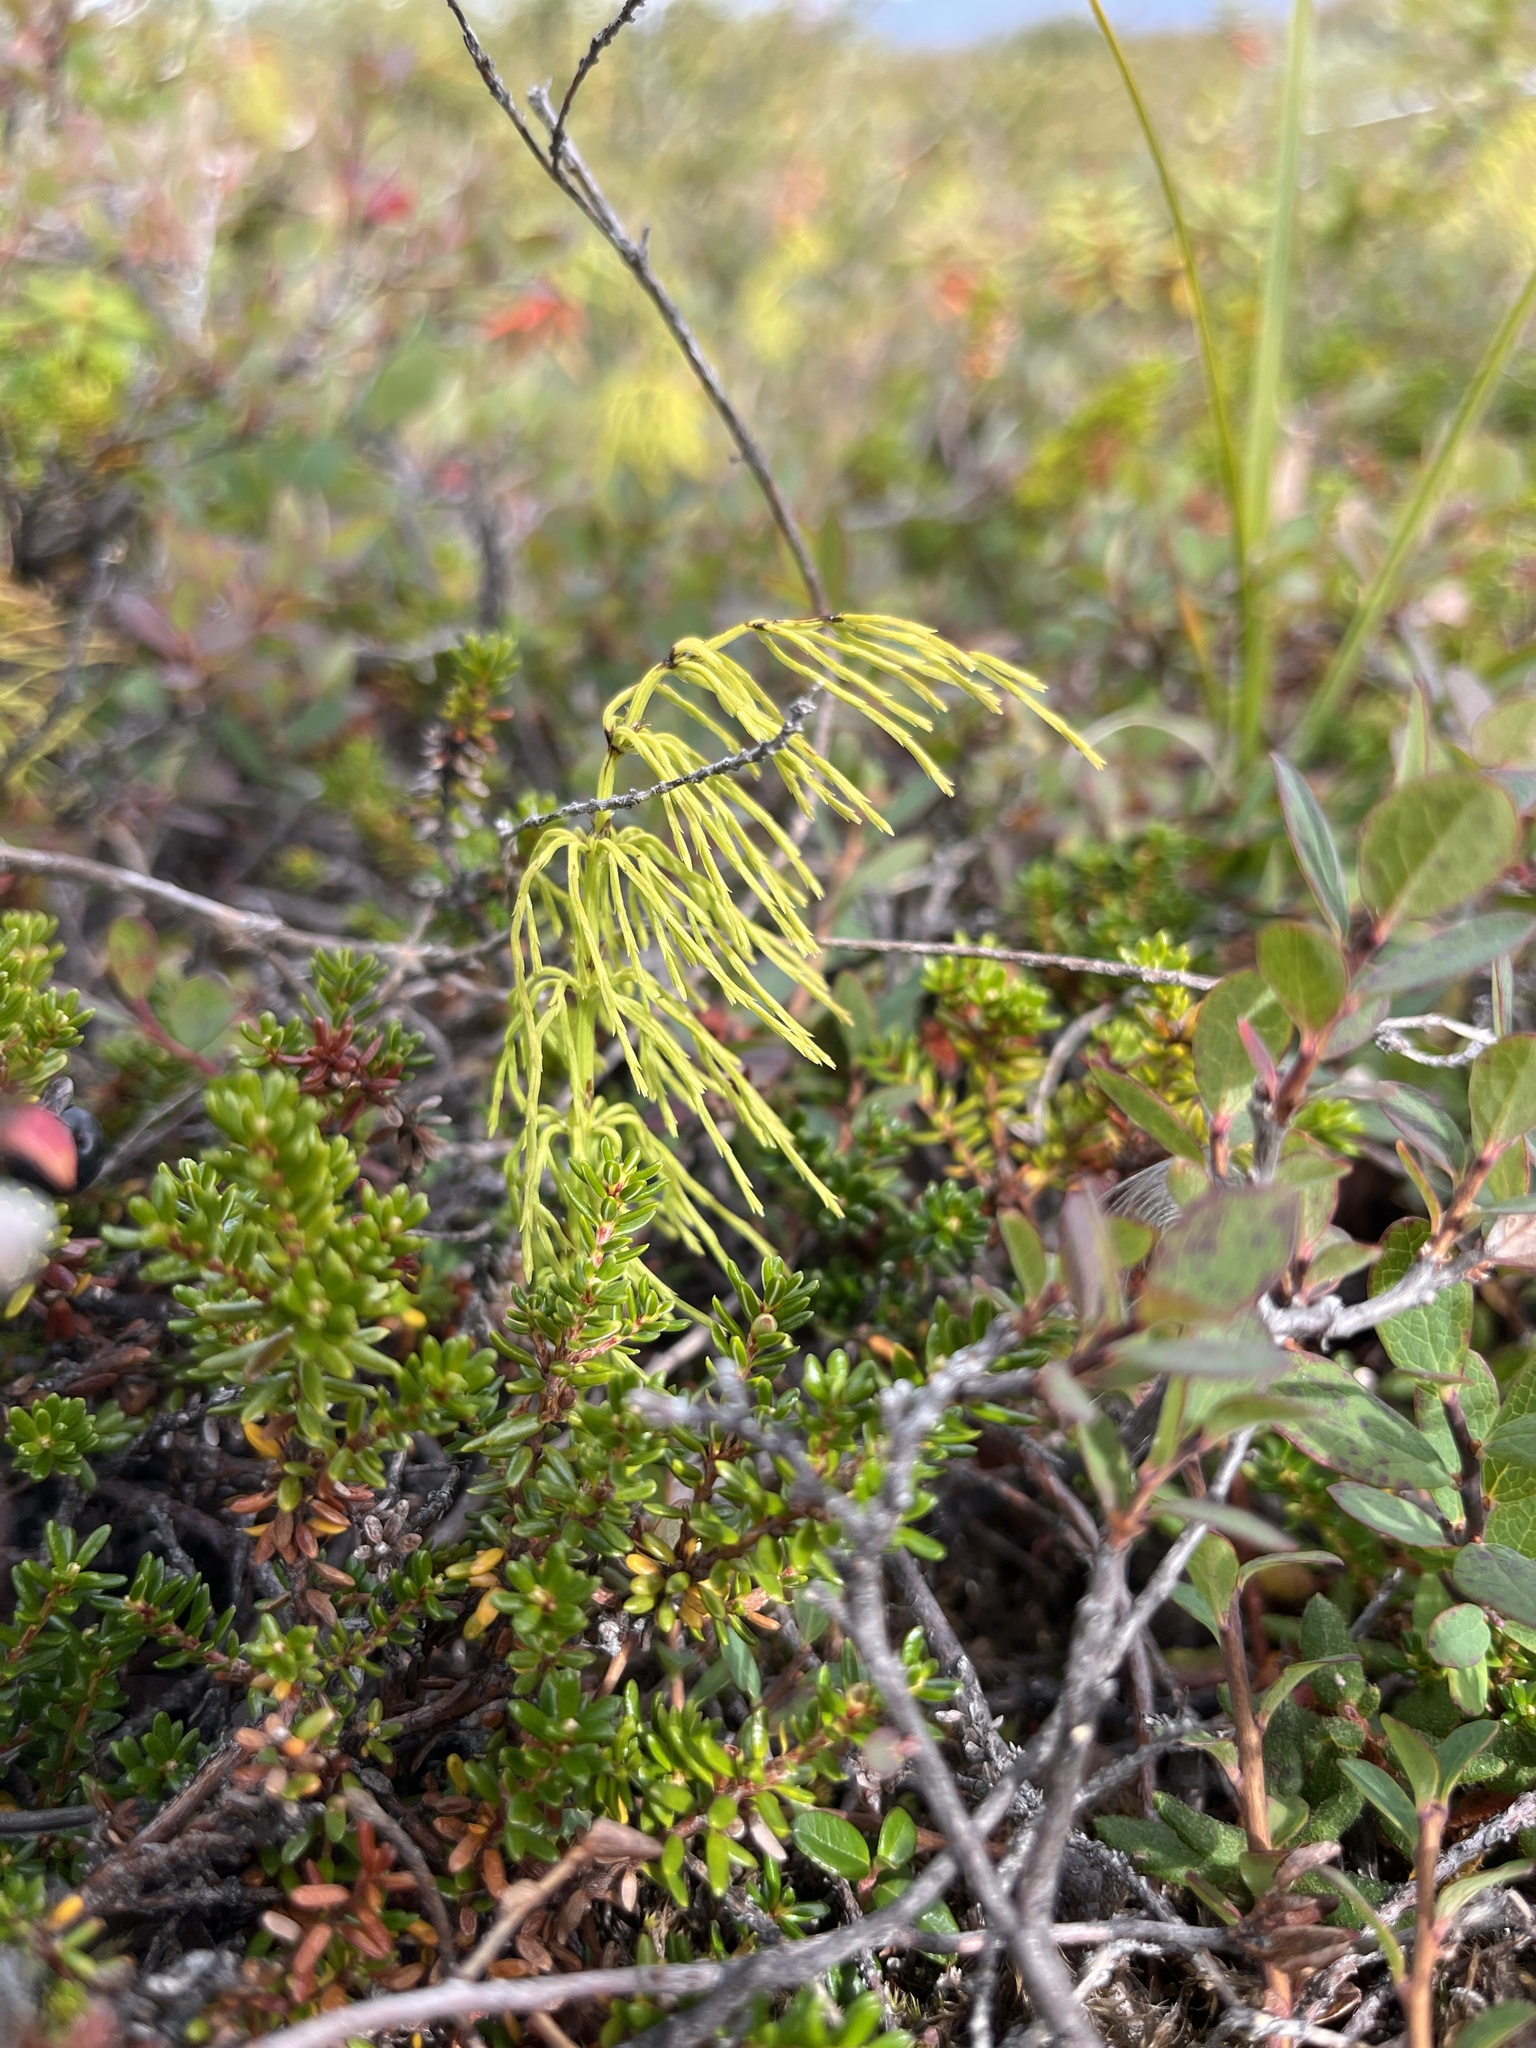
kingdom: Plantae
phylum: Tracheophyta
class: Polypodiopsida
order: Equisetales
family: Equisetaceae
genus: Equisetum
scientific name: Equisetum sylvaticum
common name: Wood horsetail
